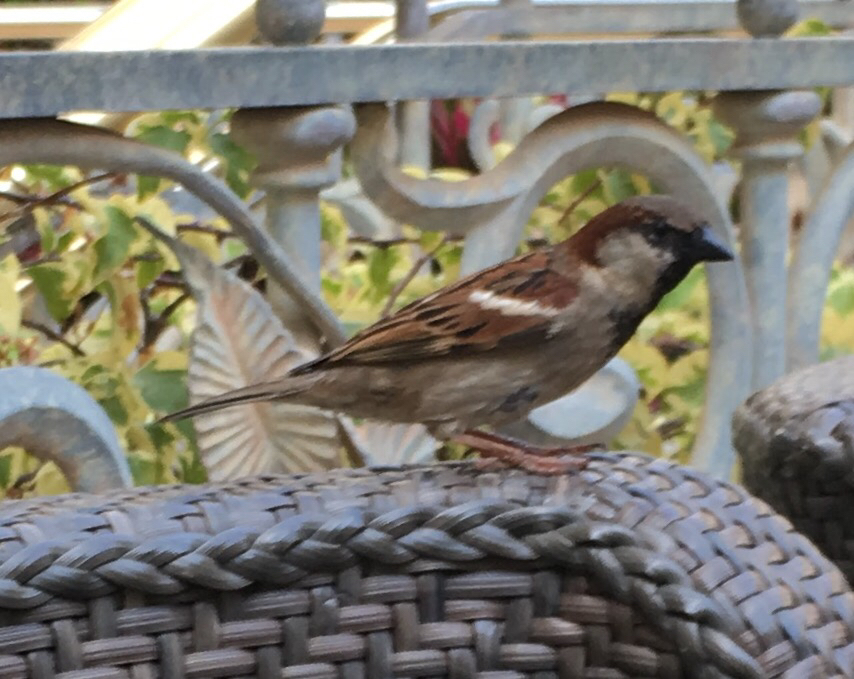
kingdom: Animalia
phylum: Chordata
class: Aves
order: Passeriformes
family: Passeridae
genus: Passer
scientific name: Passer domesticus
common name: House sparrow
